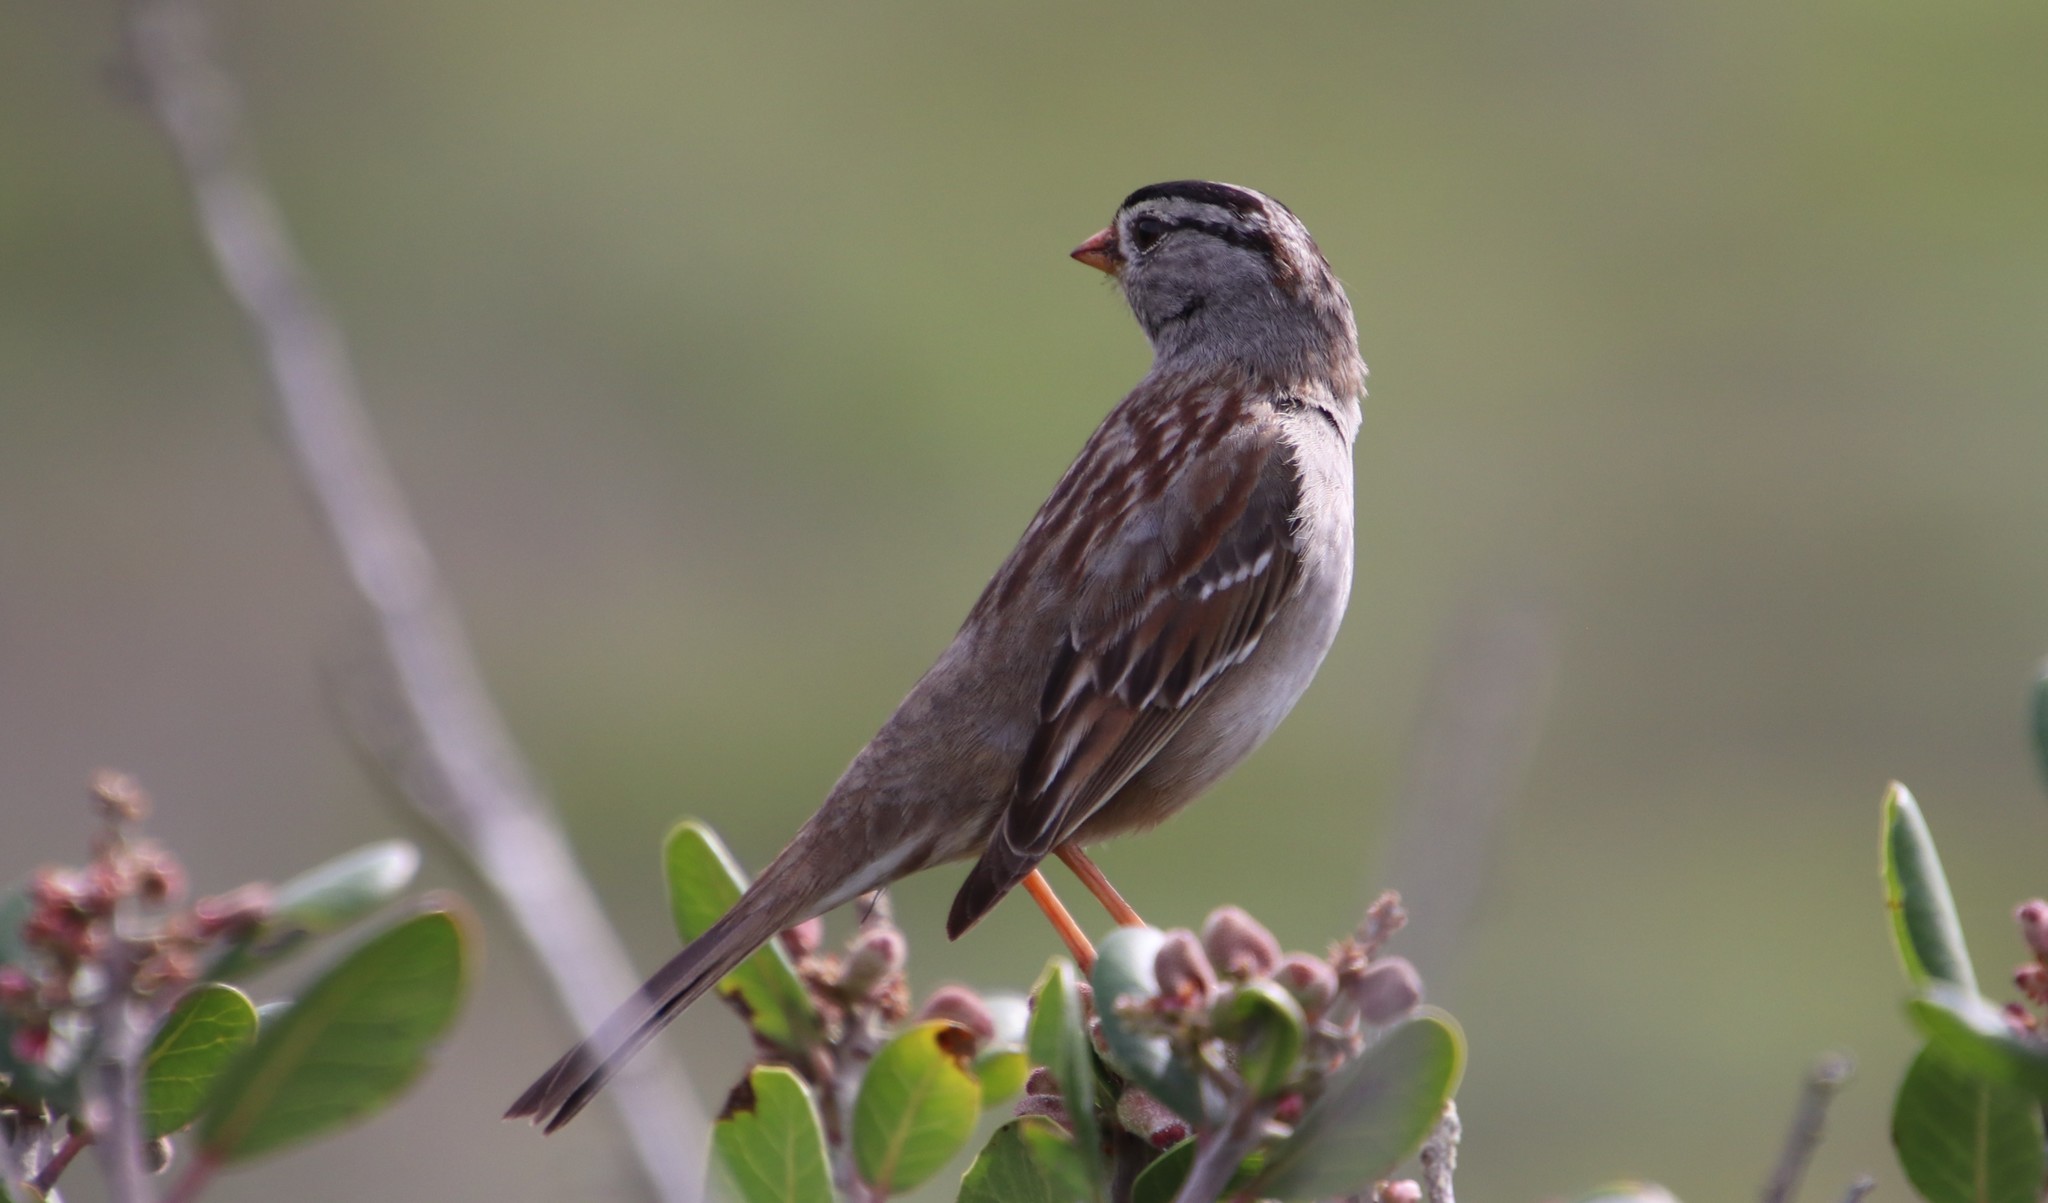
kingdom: Animalia
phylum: Chordata
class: Aves
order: Passeriformes
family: Passerellidae
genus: Zonotrichia
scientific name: Zonotrichia leucophrys
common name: White-crowned sparrow
